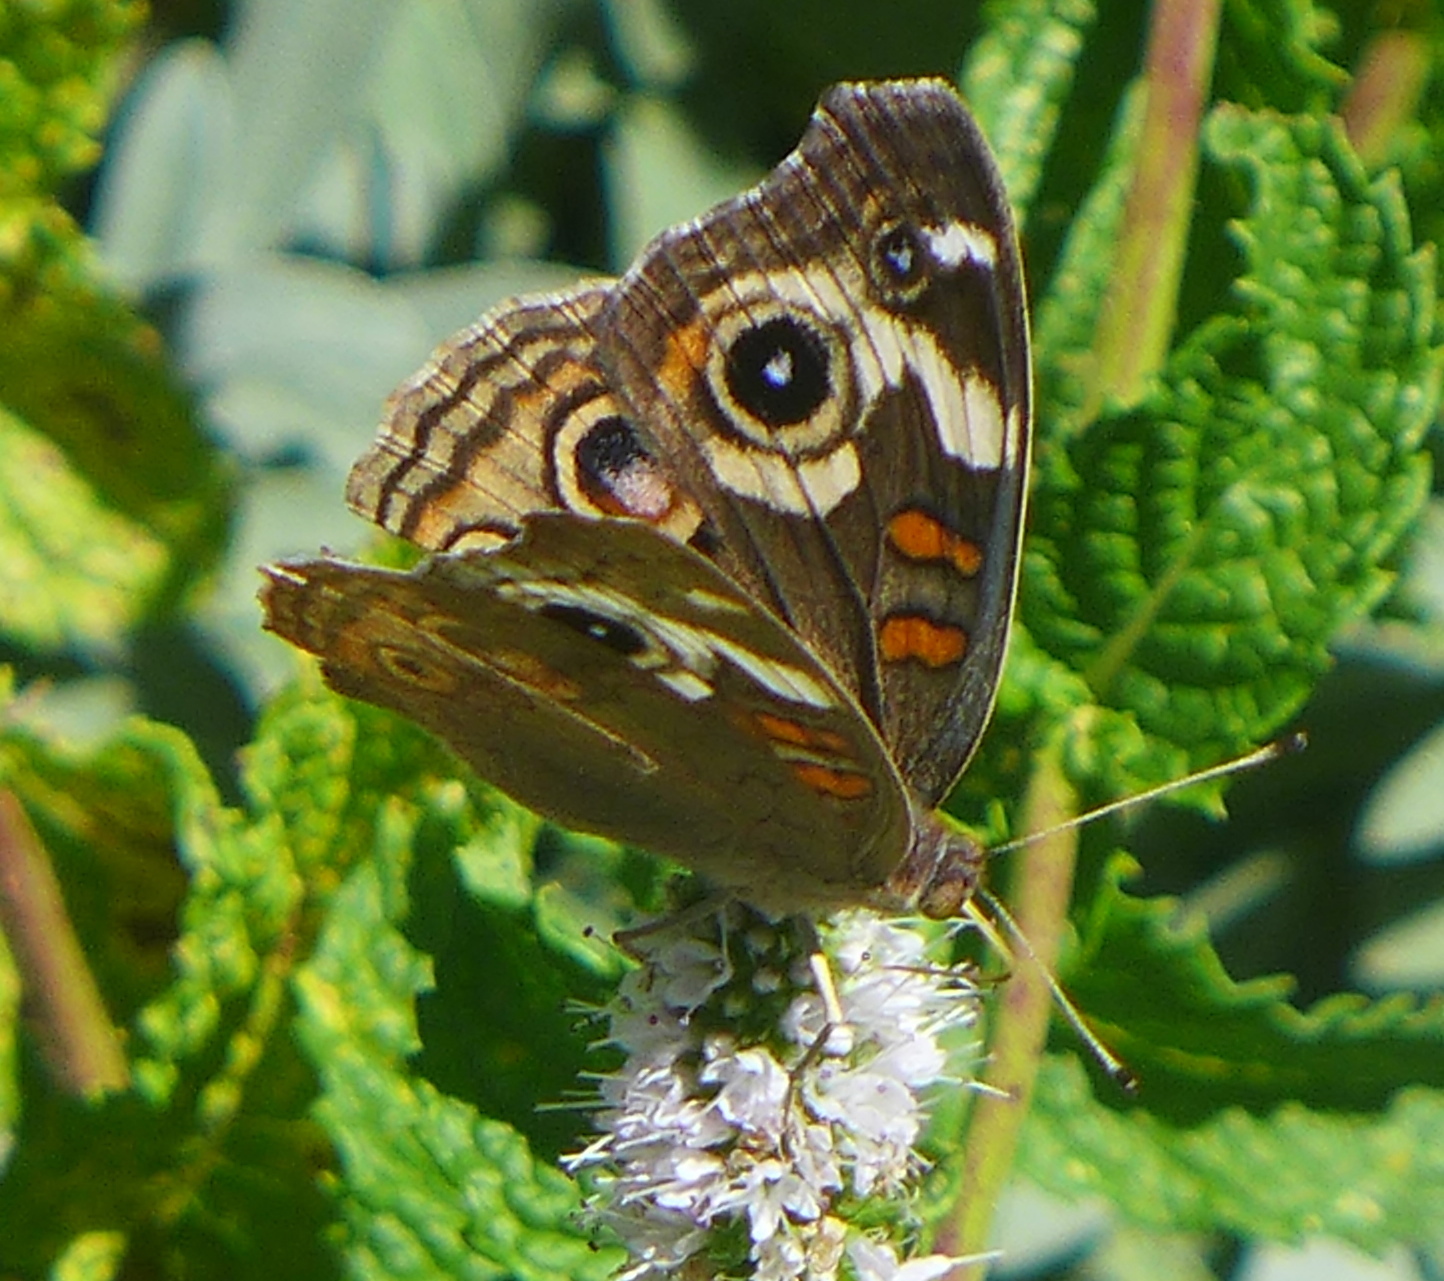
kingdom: Animalia
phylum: Arthropoda
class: Insecta
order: Lepidoptera
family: Nymphalidae
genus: Junonia
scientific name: Junonia grisea
